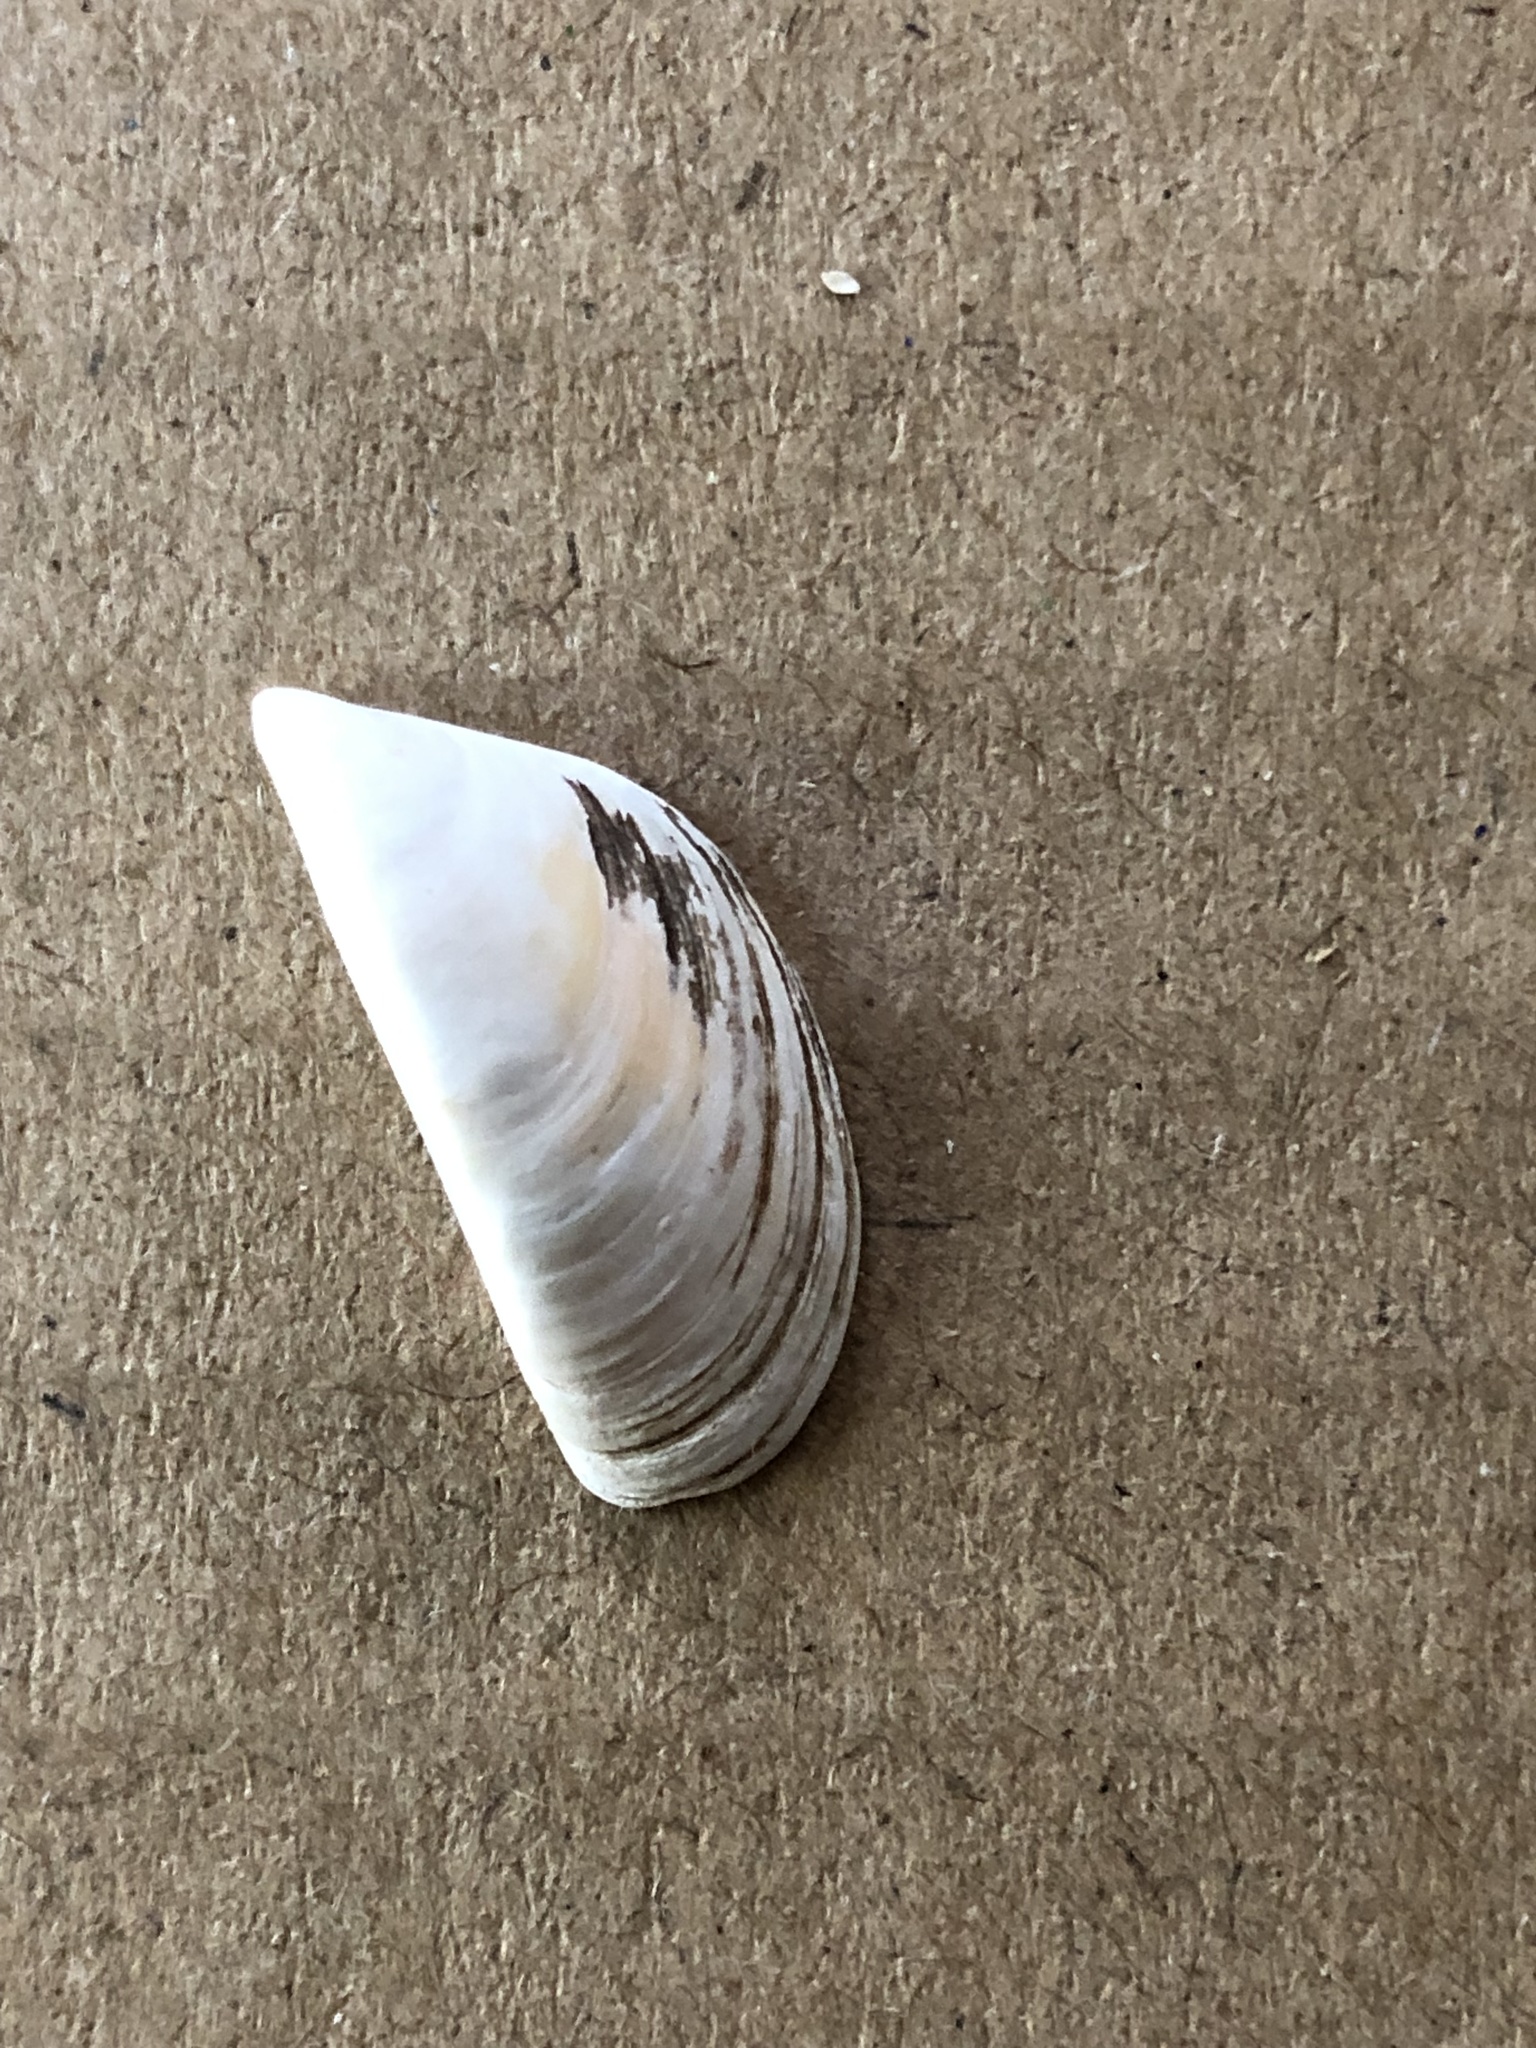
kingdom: Animalia
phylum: Mollusca
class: Bivalvia
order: Myida
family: Dreissenidae
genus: Dreissena
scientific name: Dreissena polymorpha
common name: Zebra mussel
